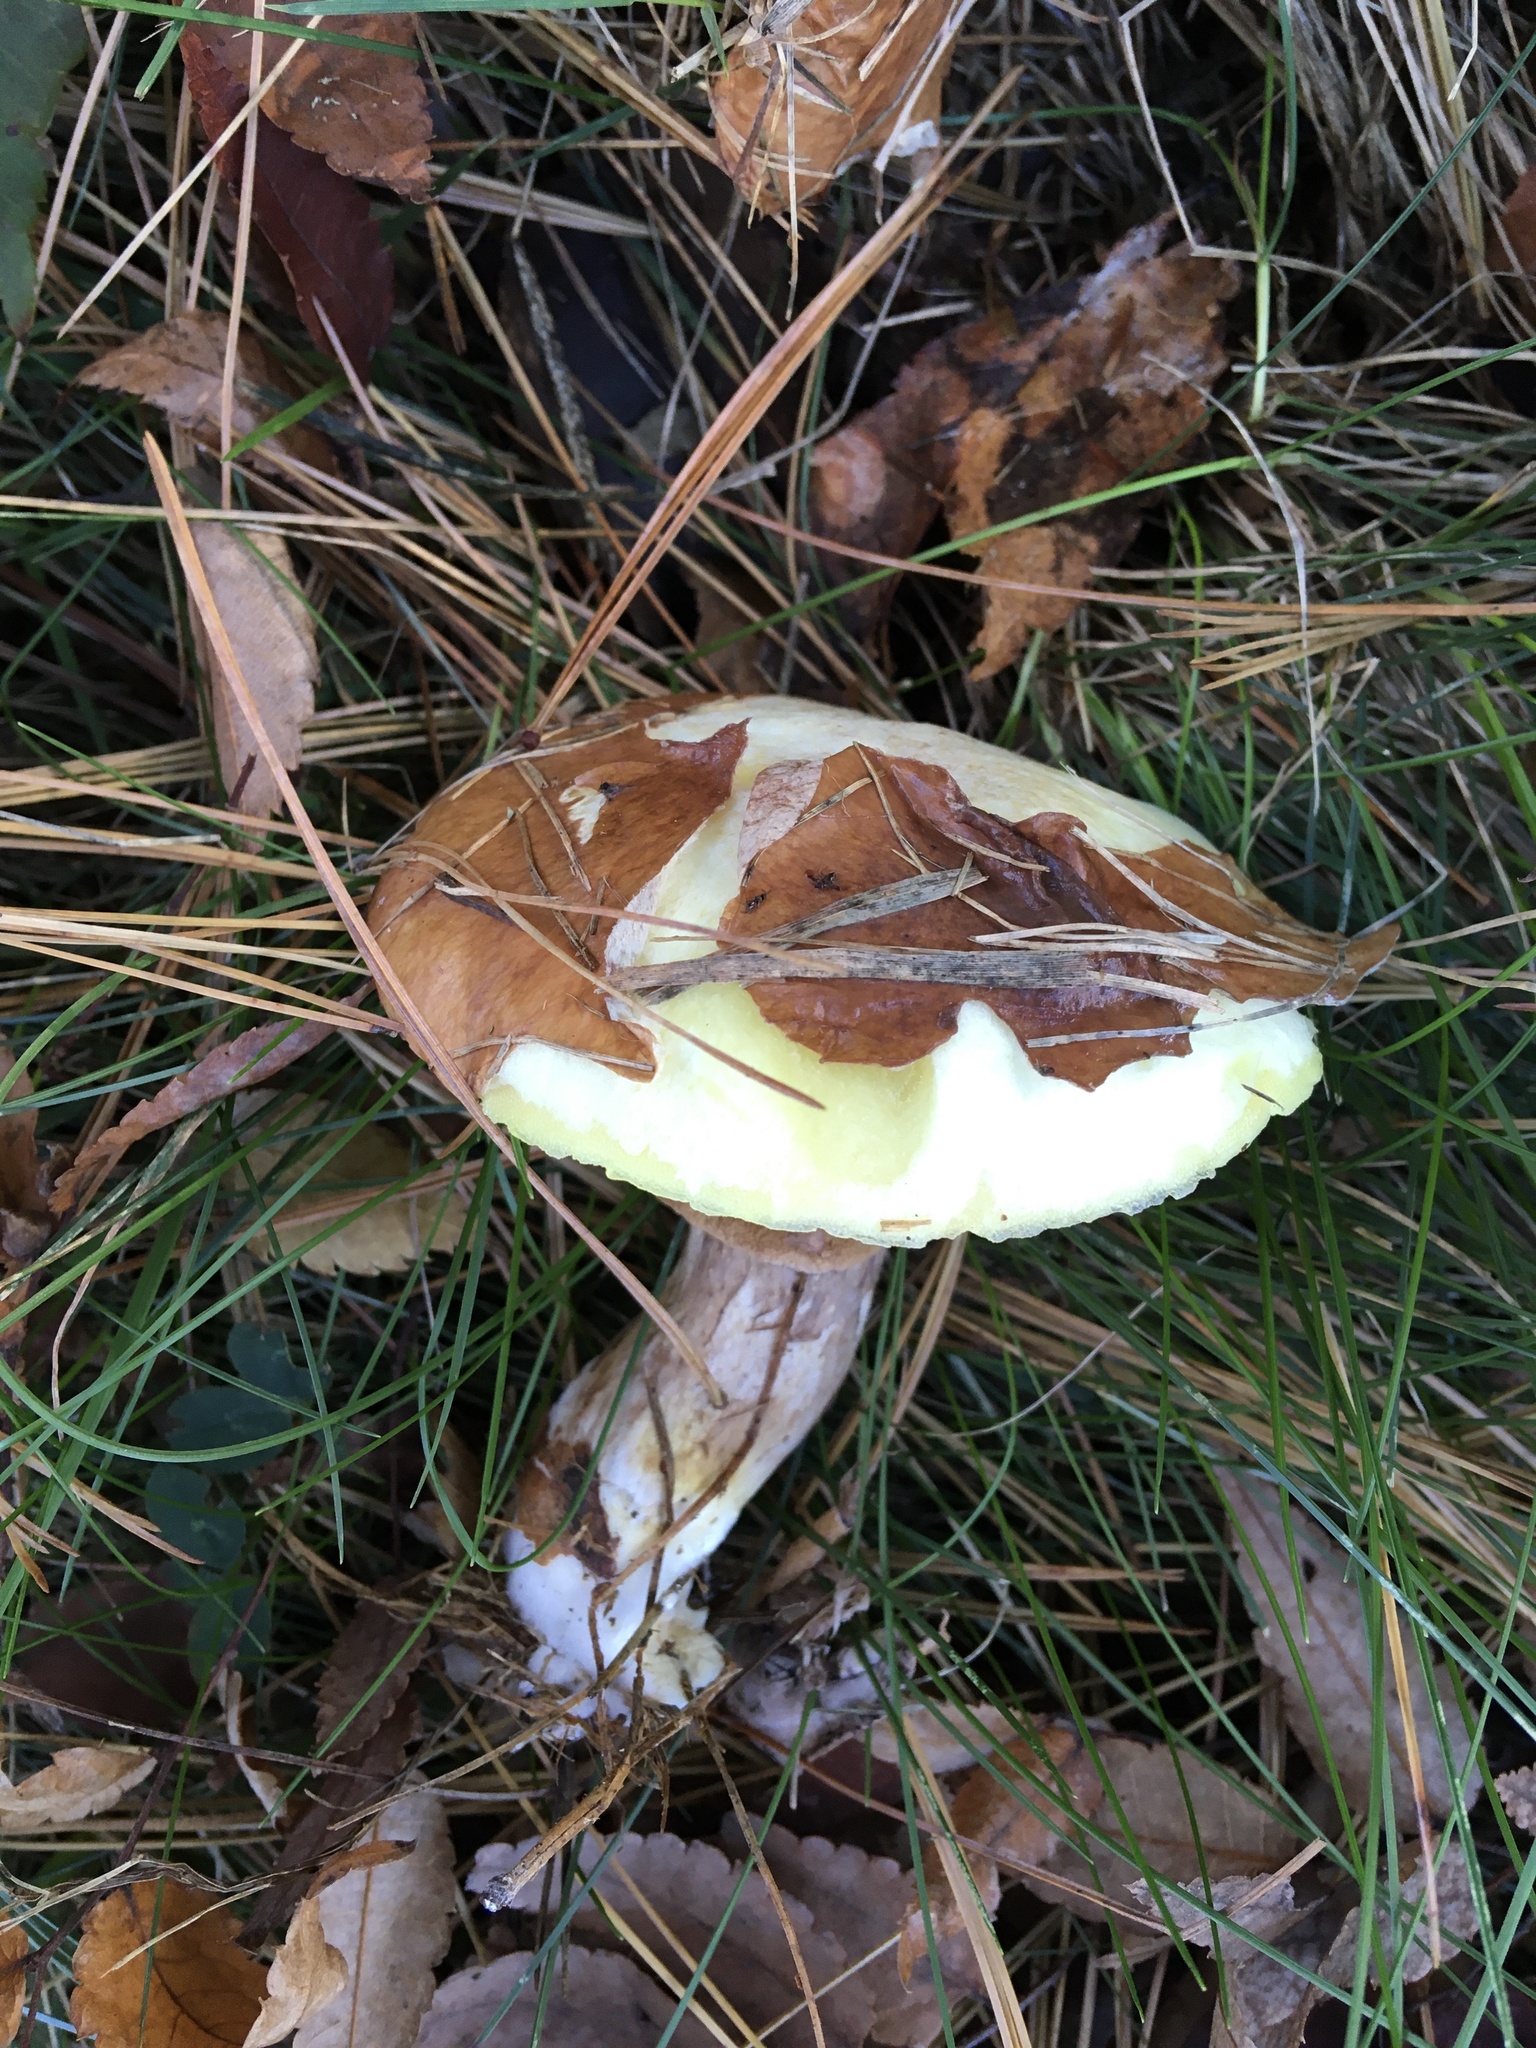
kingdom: Fungi
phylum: Basidiomycota
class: Agaricomycetes
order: Boletales
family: Suillaceae
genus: Suillus
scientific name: Suillus luteus
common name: Slippery jack
